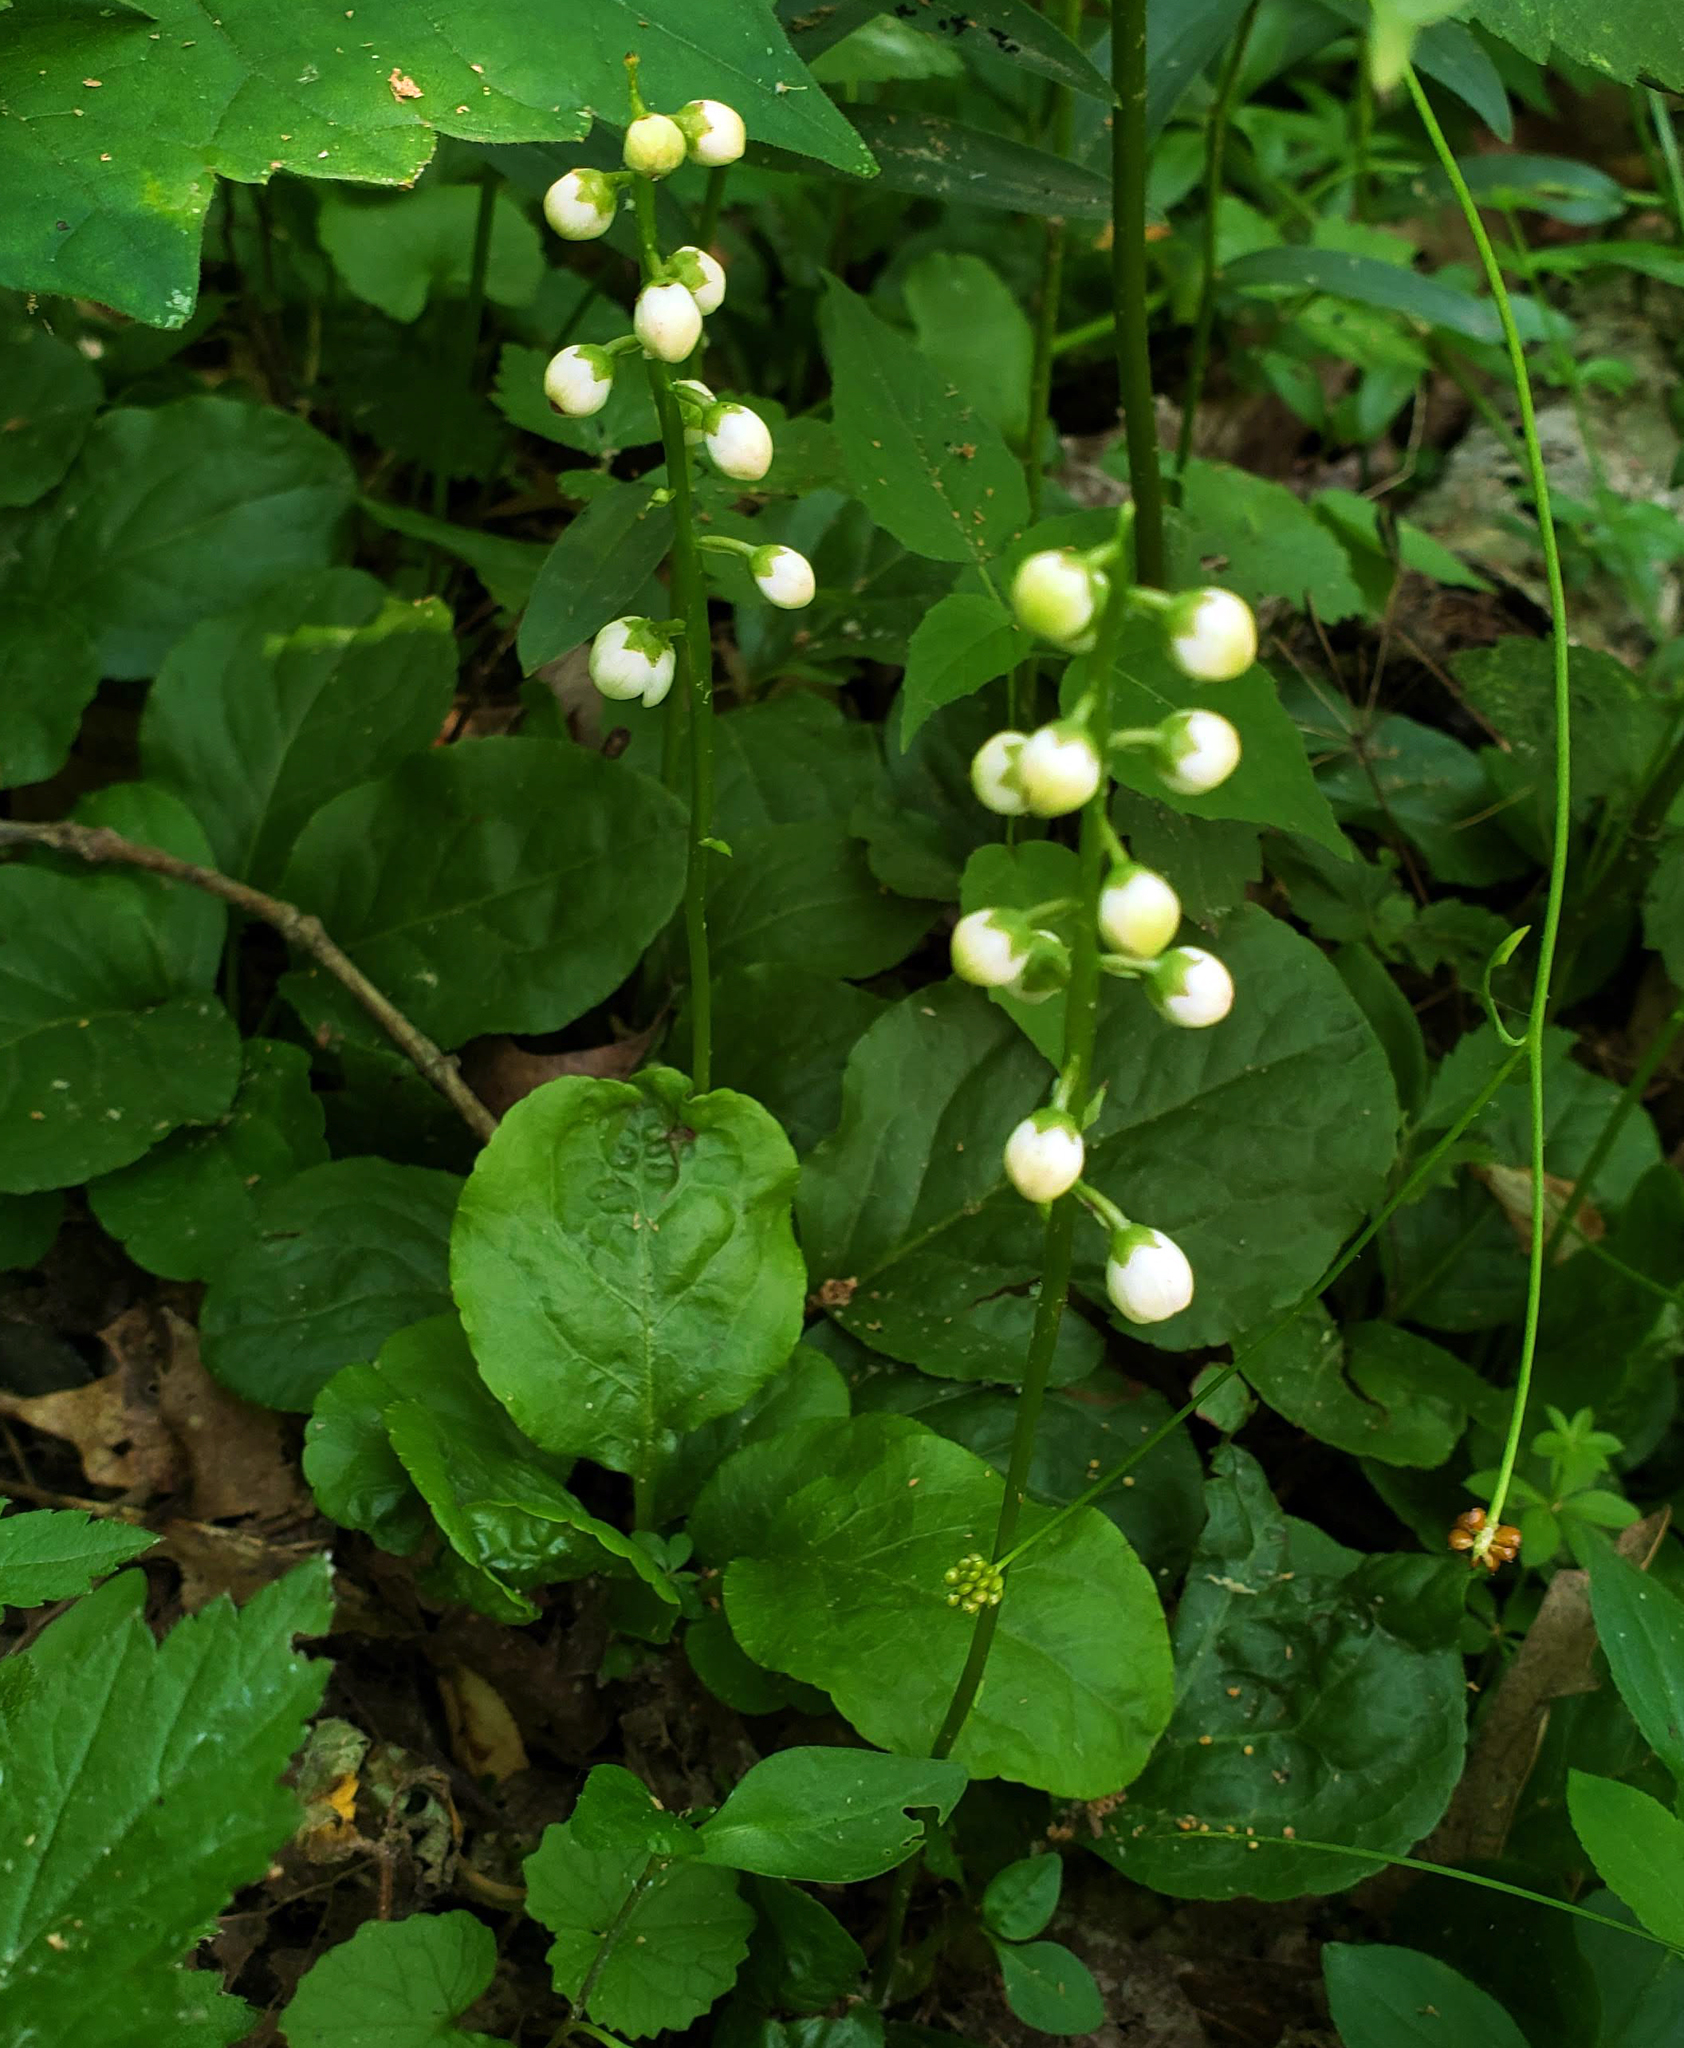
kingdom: Plantae
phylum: Tracheophyta
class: Magnoliopsida
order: Ericales
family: Ericaceae
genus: Pyrola
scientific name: Pyrola elliptica
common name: Shinleaf
